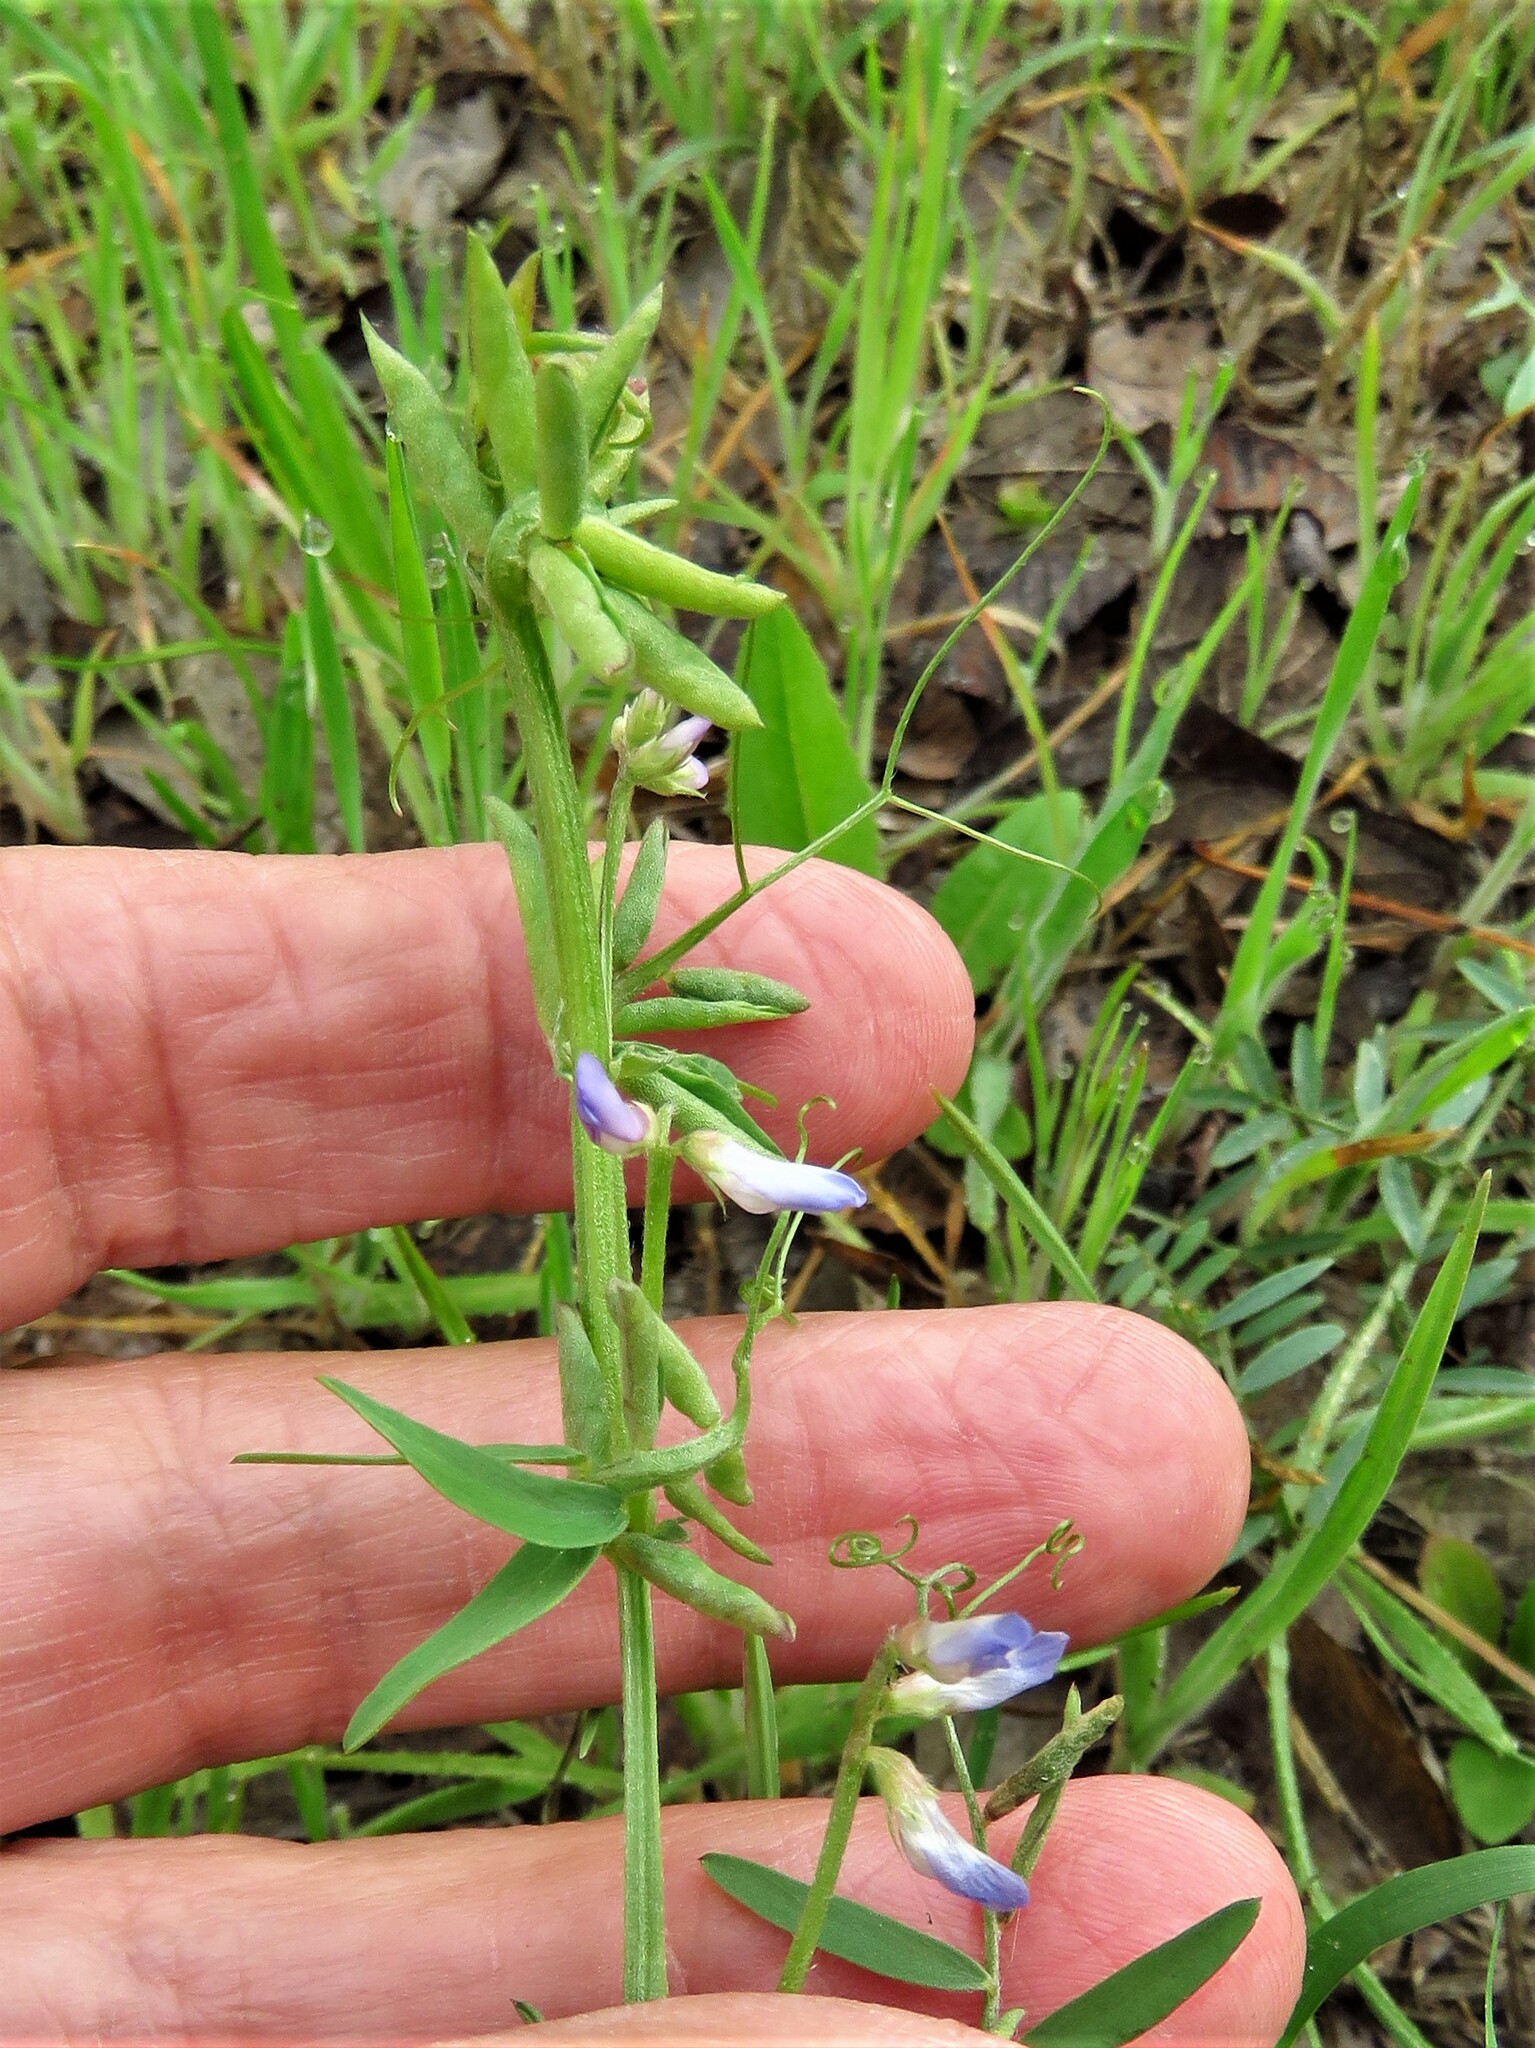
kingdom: Plantae
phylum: Tracheophyta
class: Magnoliopsida
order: Fabales
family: Fabaceae
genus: Vicia
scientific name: Vicia ludoviciana
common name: Louisiana vetch
